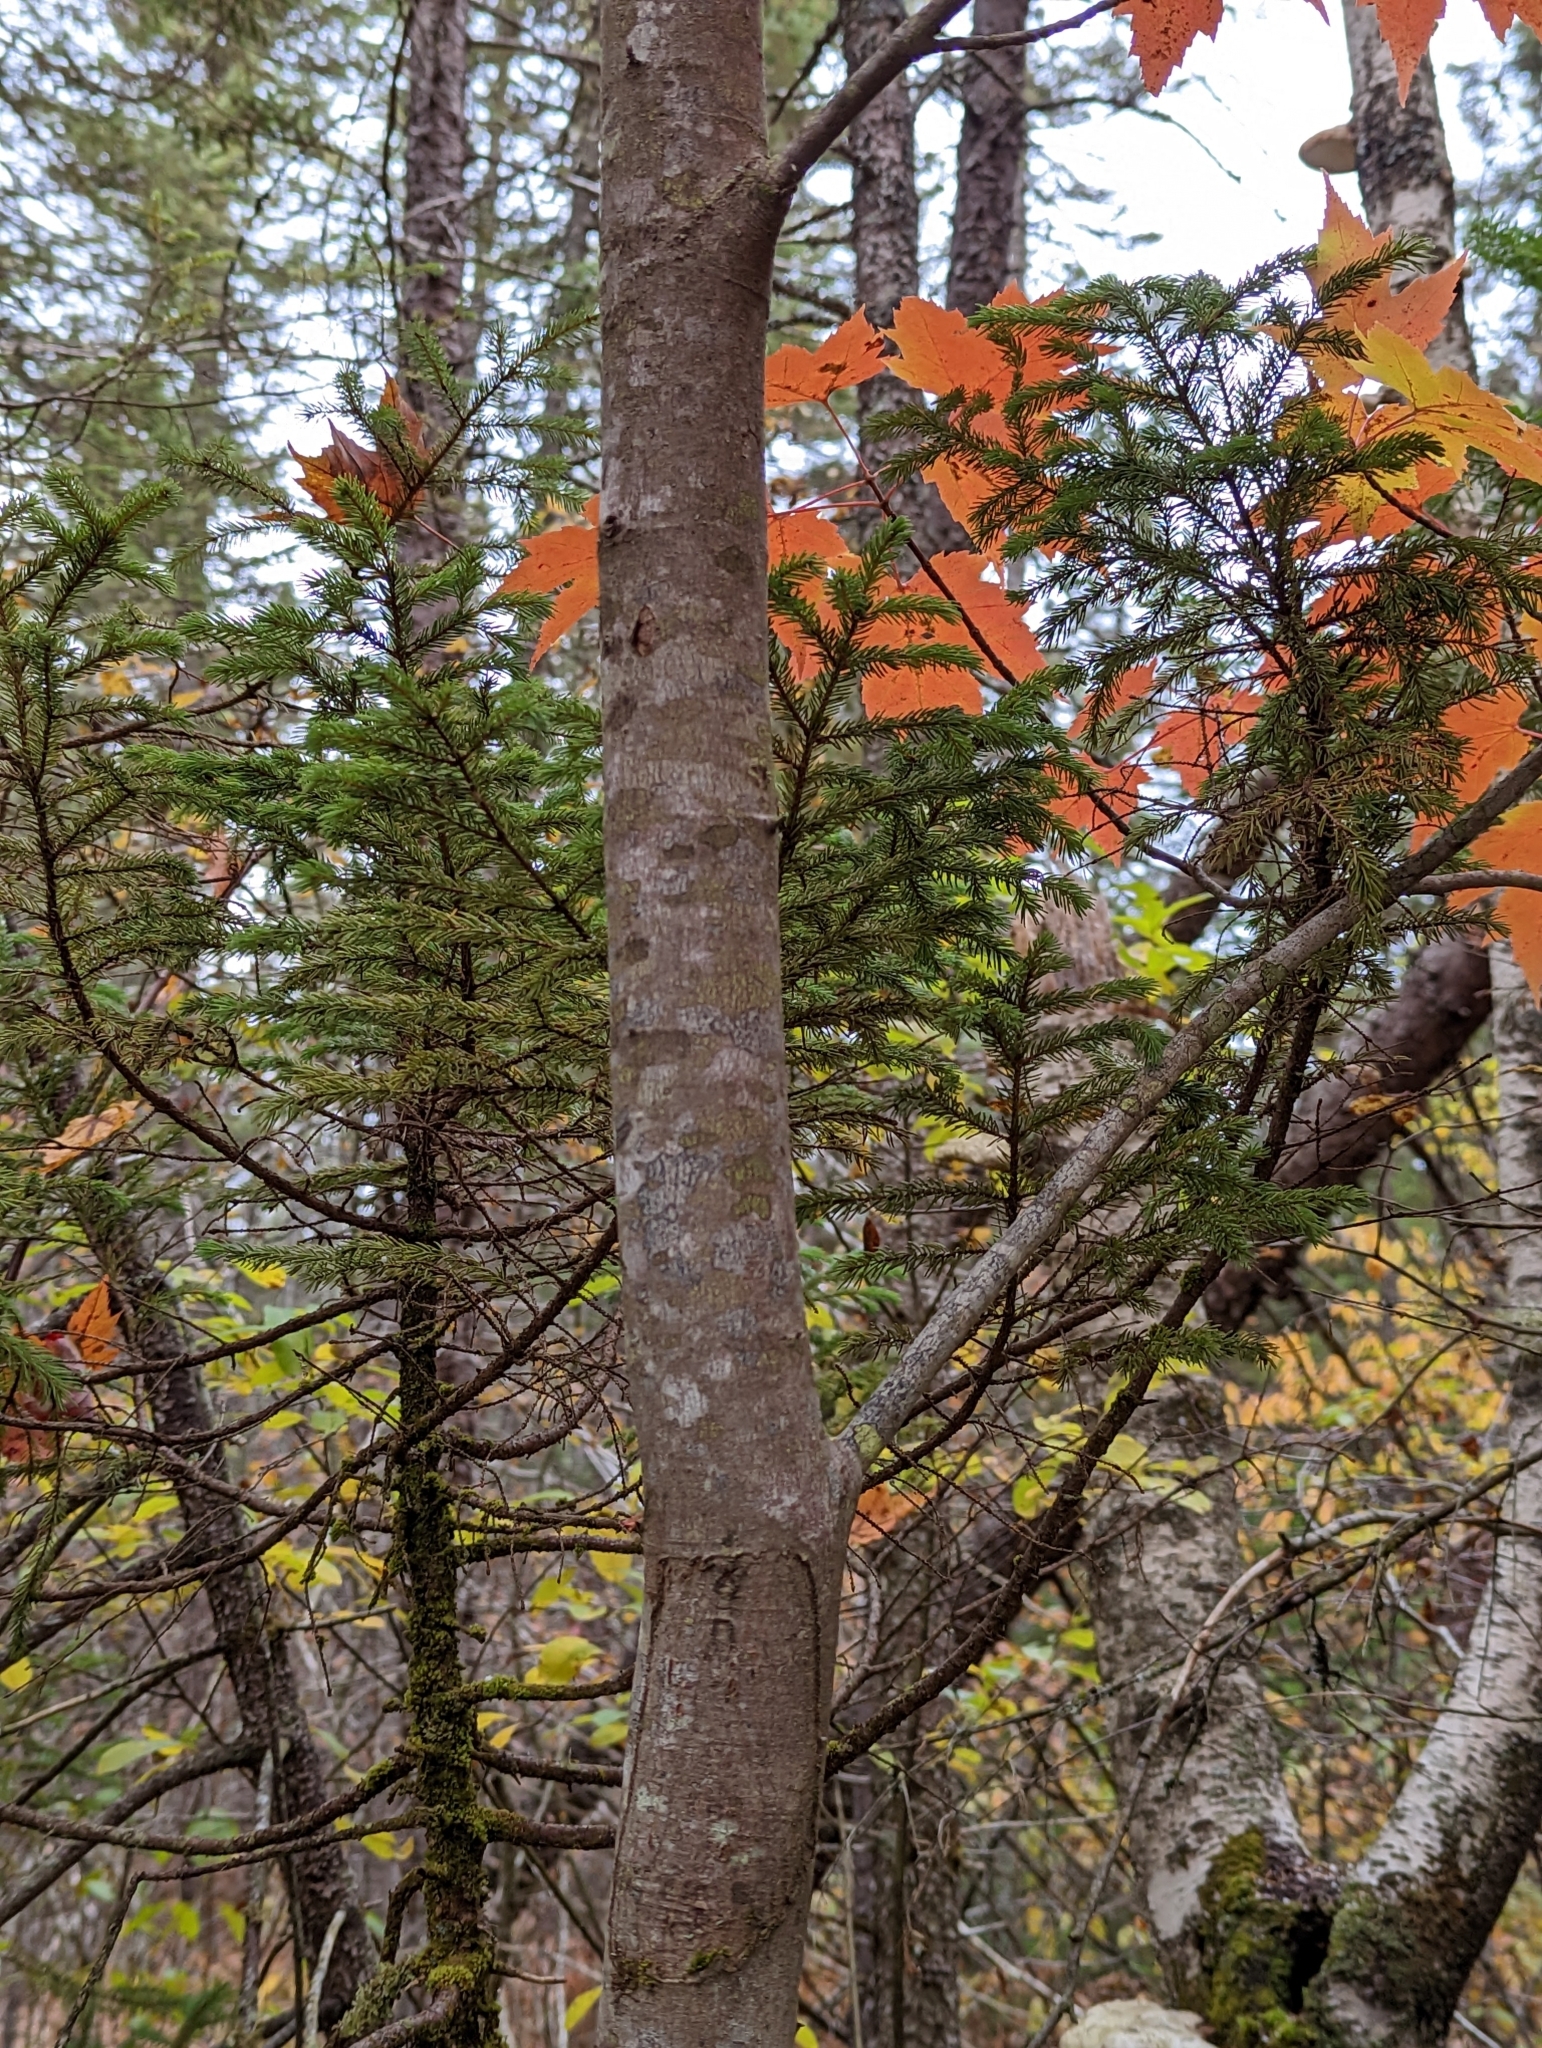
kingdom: Plantae
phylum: Tracheophyta
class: Magnoliopsida
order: Sapindales
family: Sapindaceae
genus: Acer
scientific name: Acer rubrum
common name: Red maple
